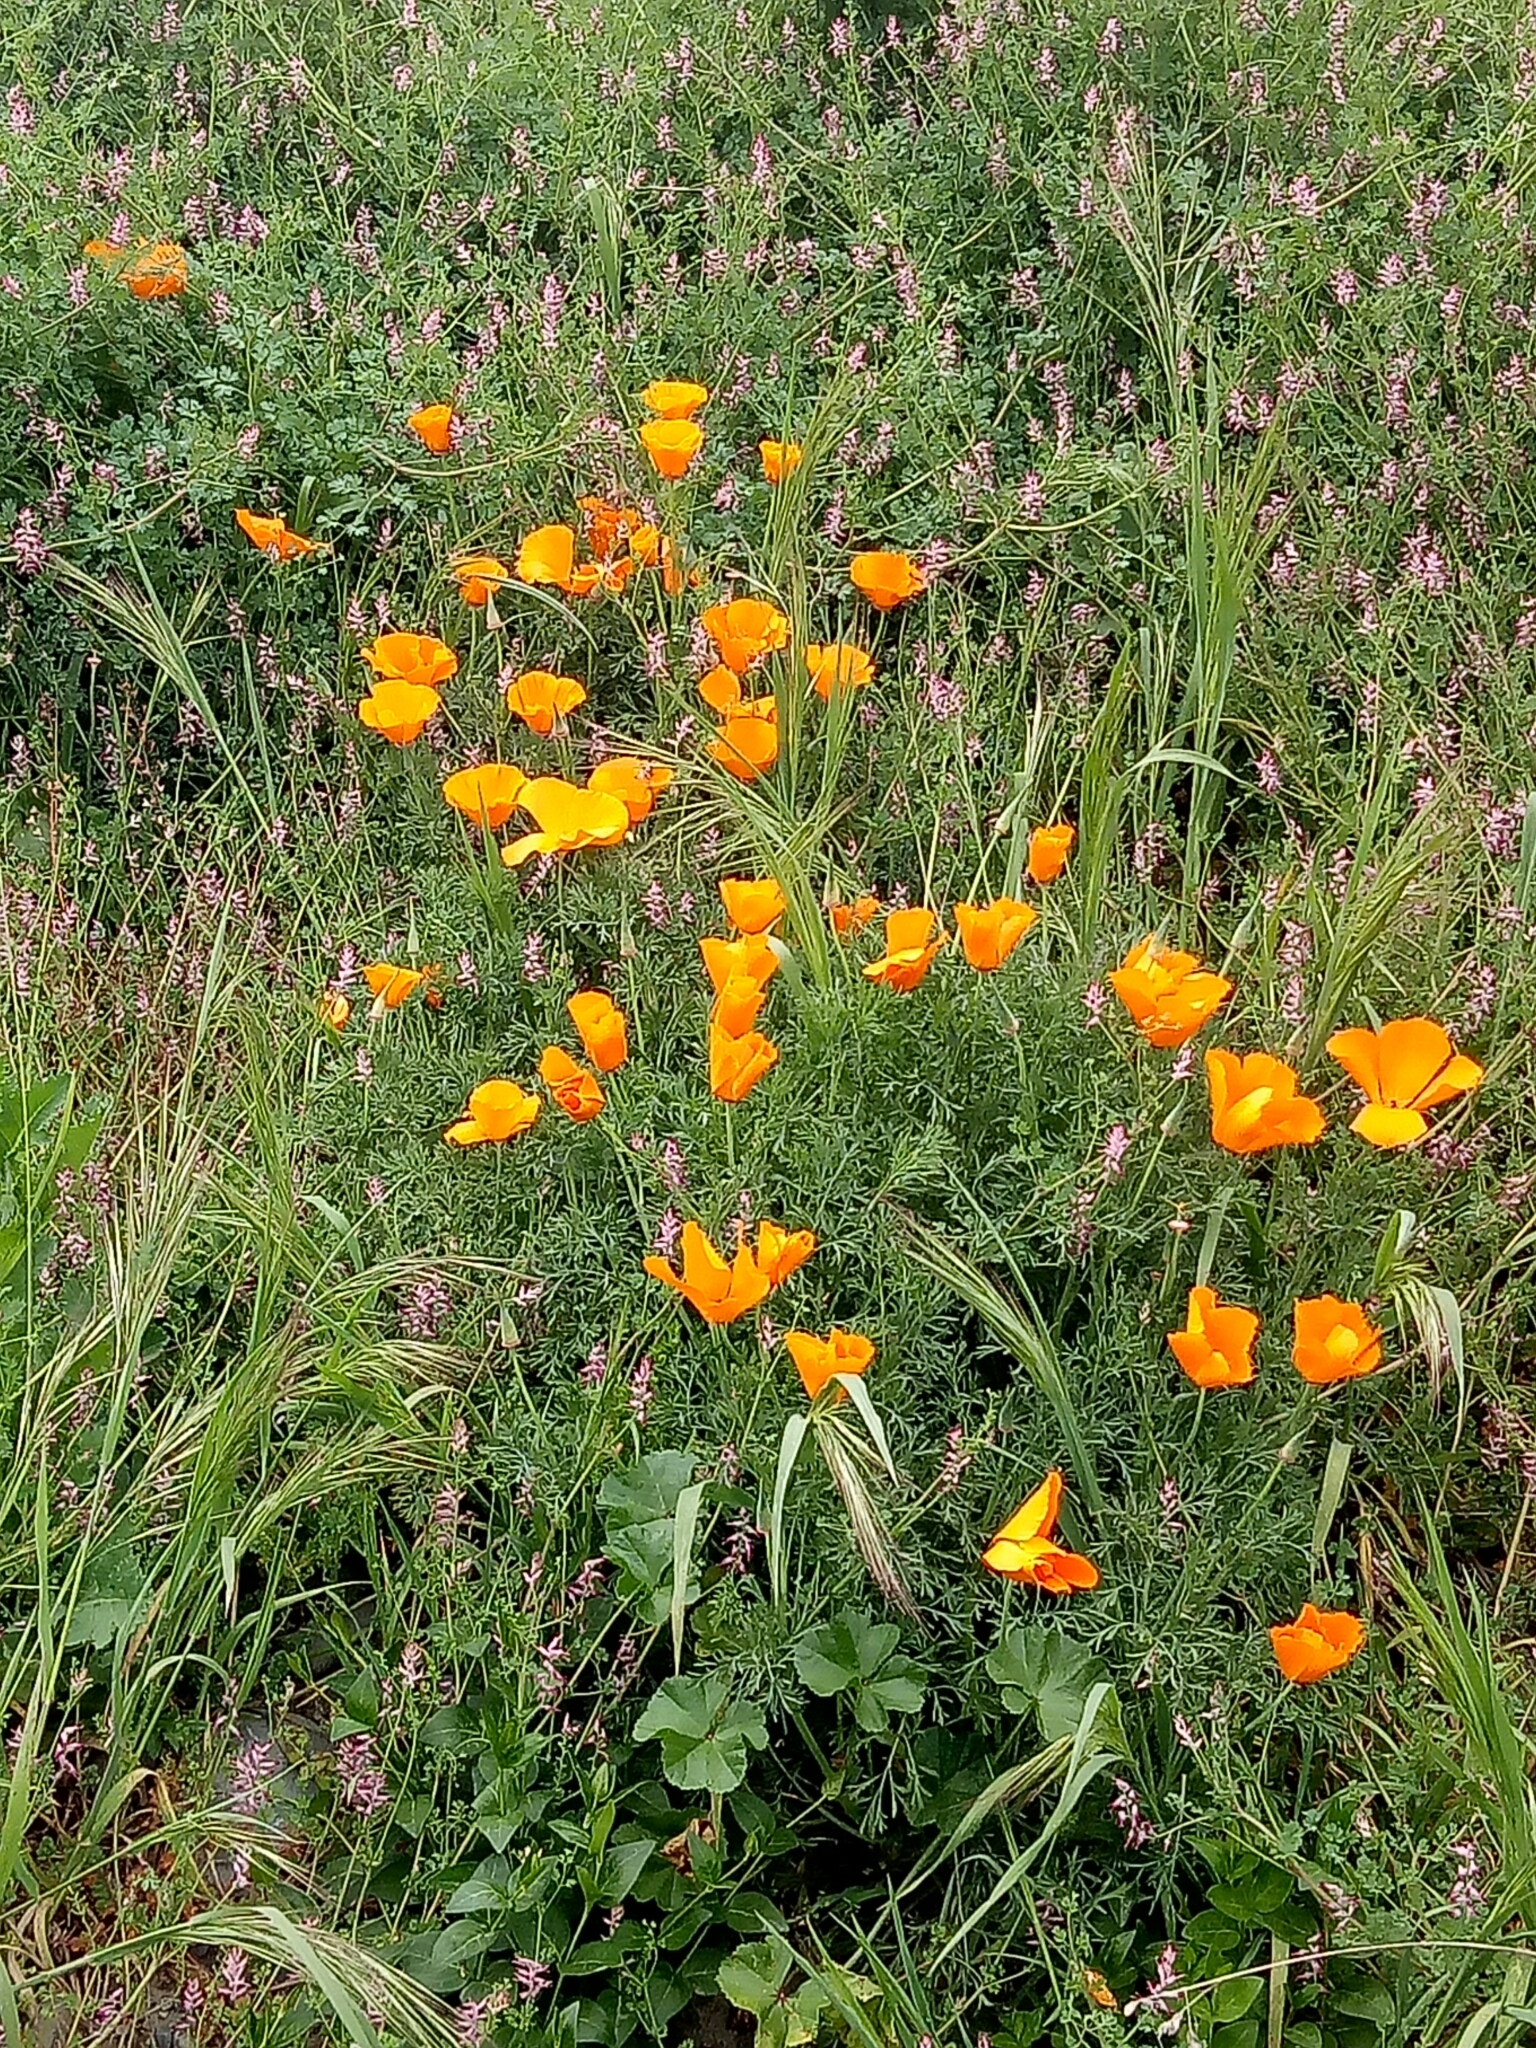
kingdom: Plantae
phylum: Tracheophyta
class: Magnoliopsida
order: Ranunculales
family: Papaveraceae
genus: Eschscholzia
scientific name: Eschscholzia californica
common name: California poppy
